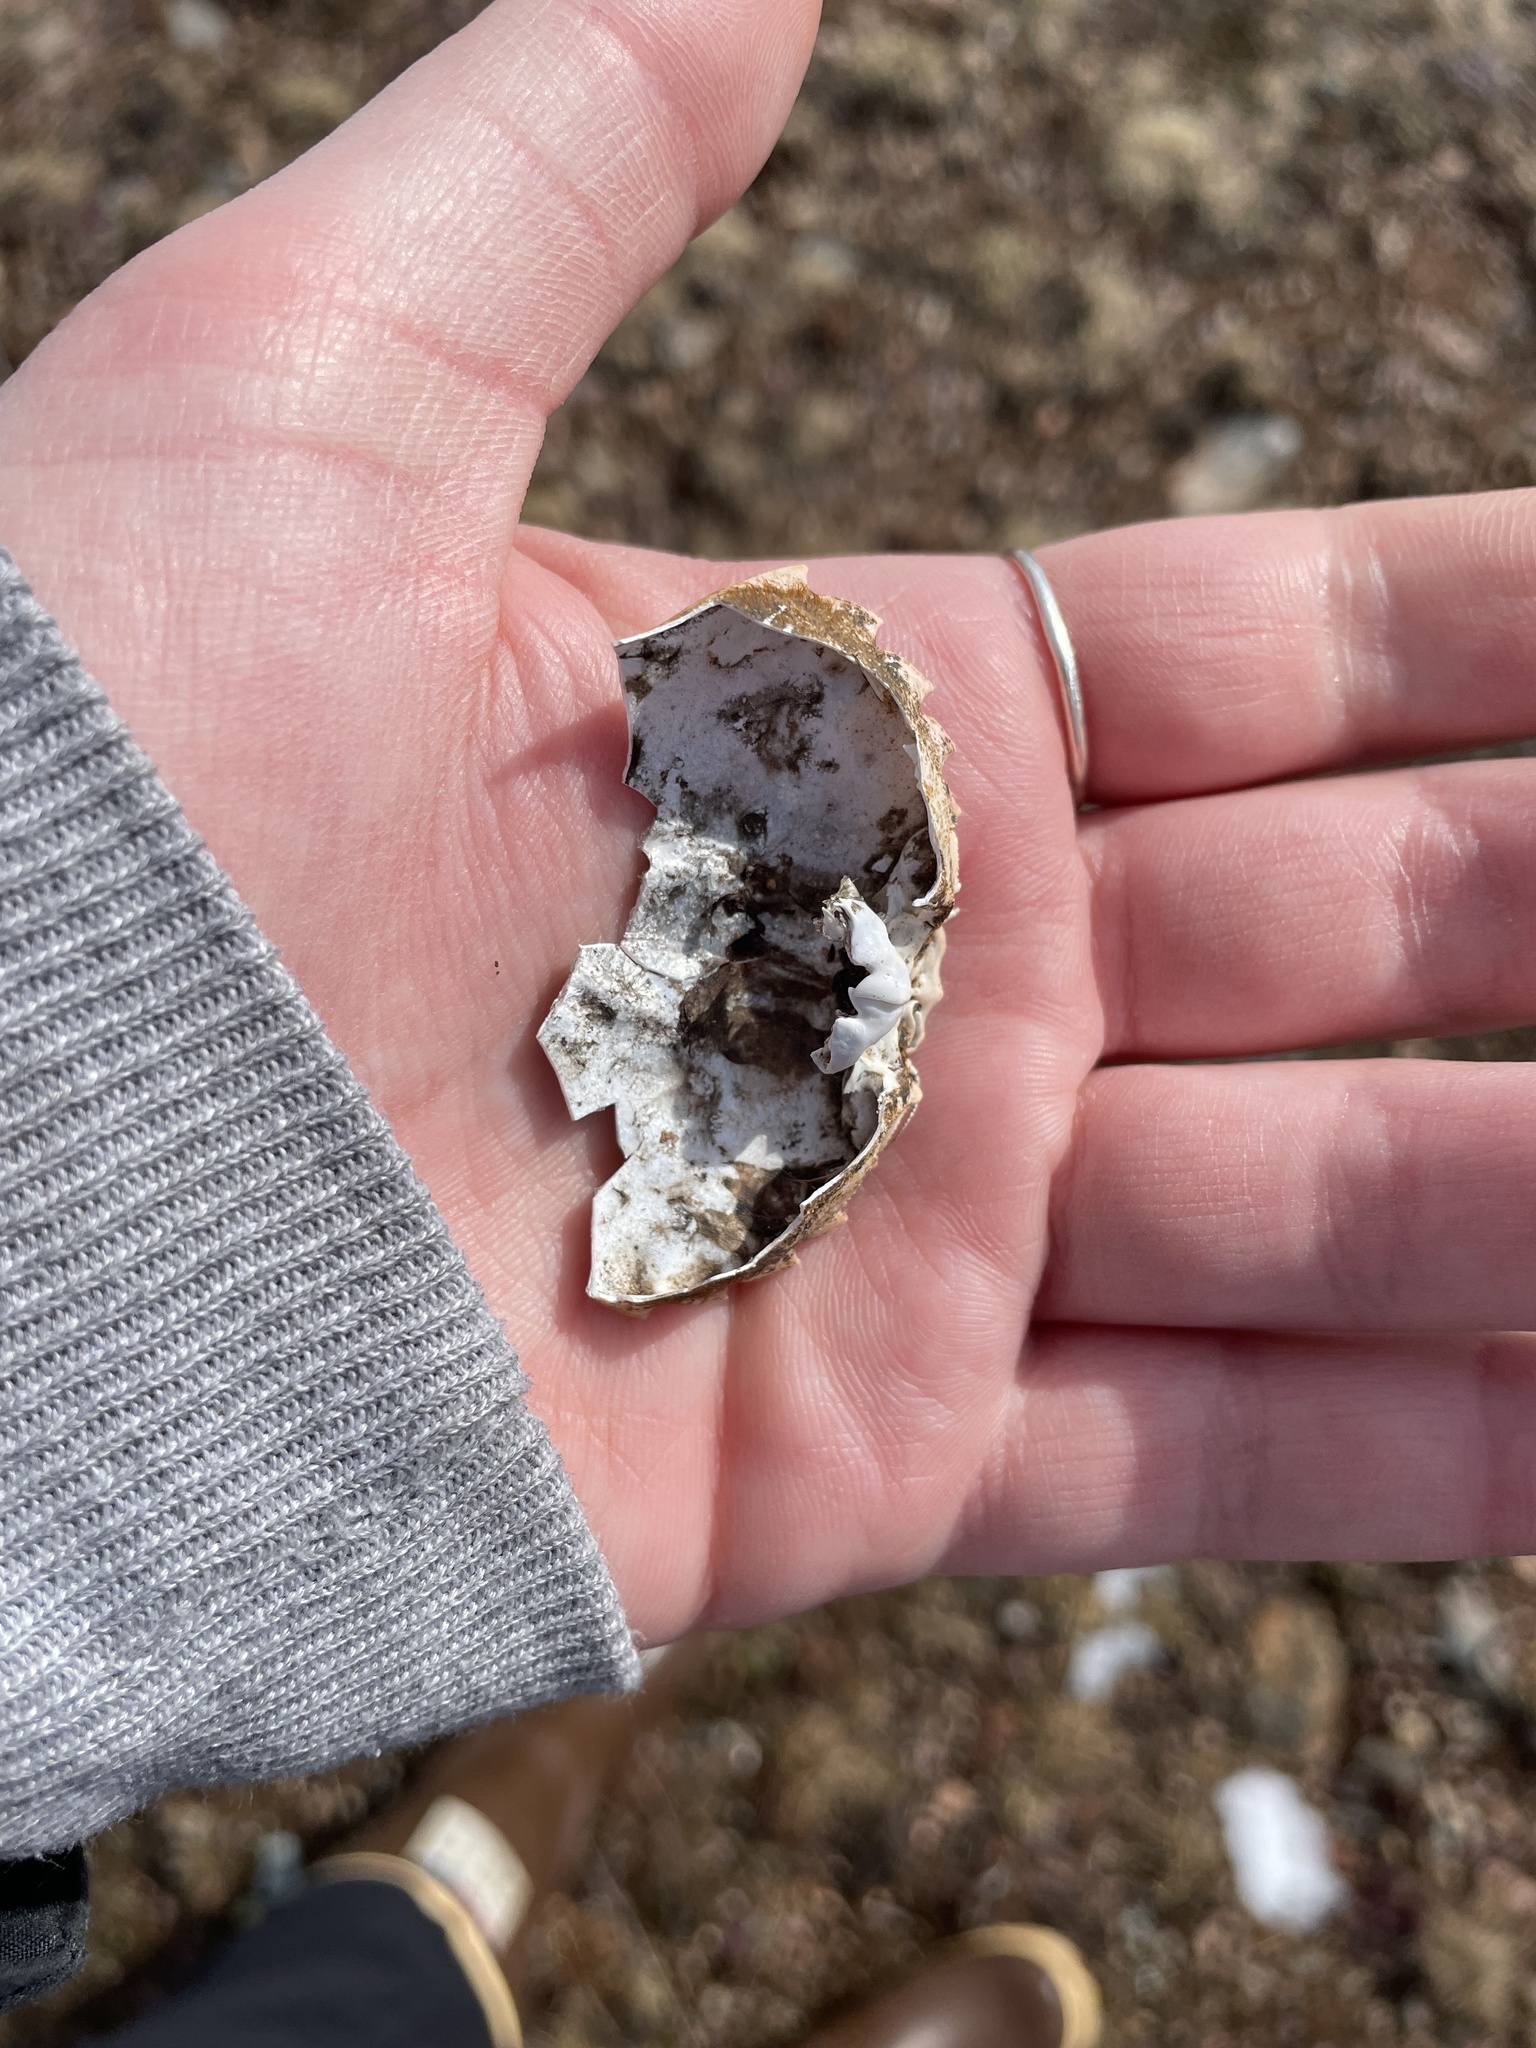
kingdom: Animalia
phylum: Arthropoda
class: Malacostraca
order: Decapoda
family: Carcinidae
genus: Carcinus
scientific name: Carcinus maenas
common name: European green crab
